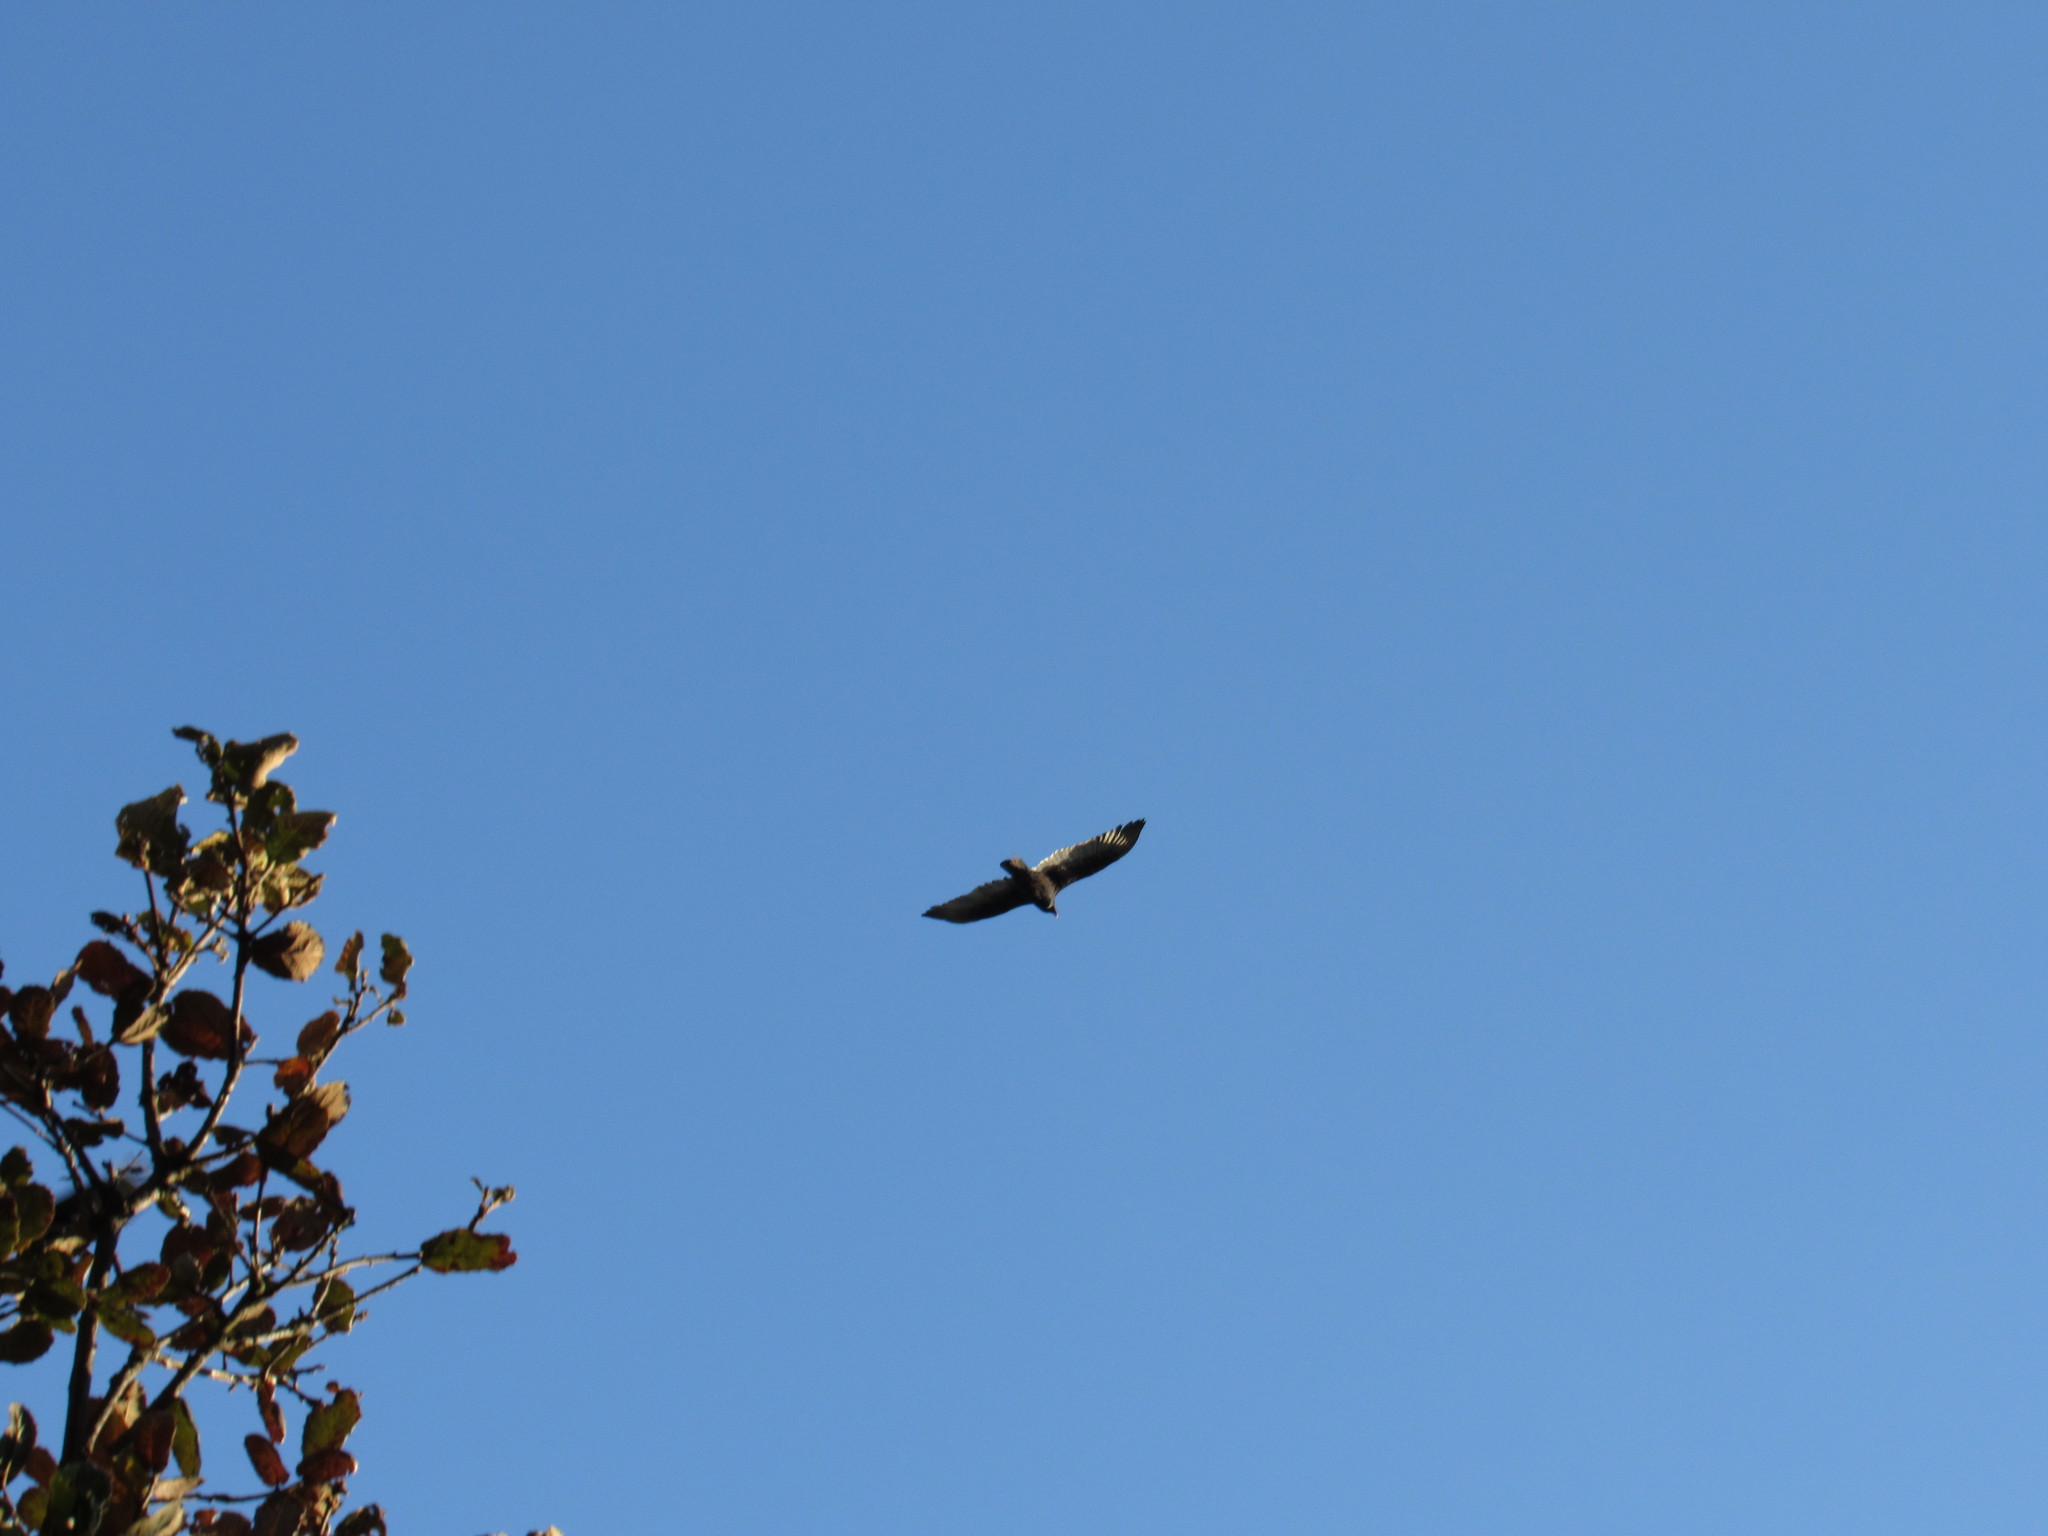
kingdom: Animalia
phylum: Chordata
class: Aves
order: Accipitriformes
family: Cathartidae
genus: Cathartes
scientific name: Cathartes aura
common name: Turkey vulture
